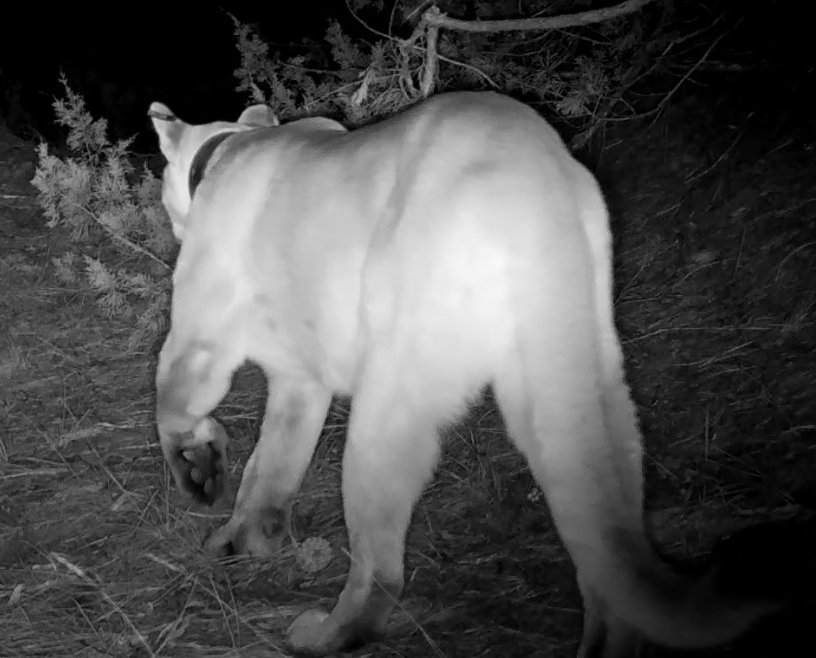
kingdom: Animalia
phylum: Chordata
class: Mammalia
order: Carnivora
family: Felidae
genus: Puma
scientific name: Puma concolor
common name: Puma
